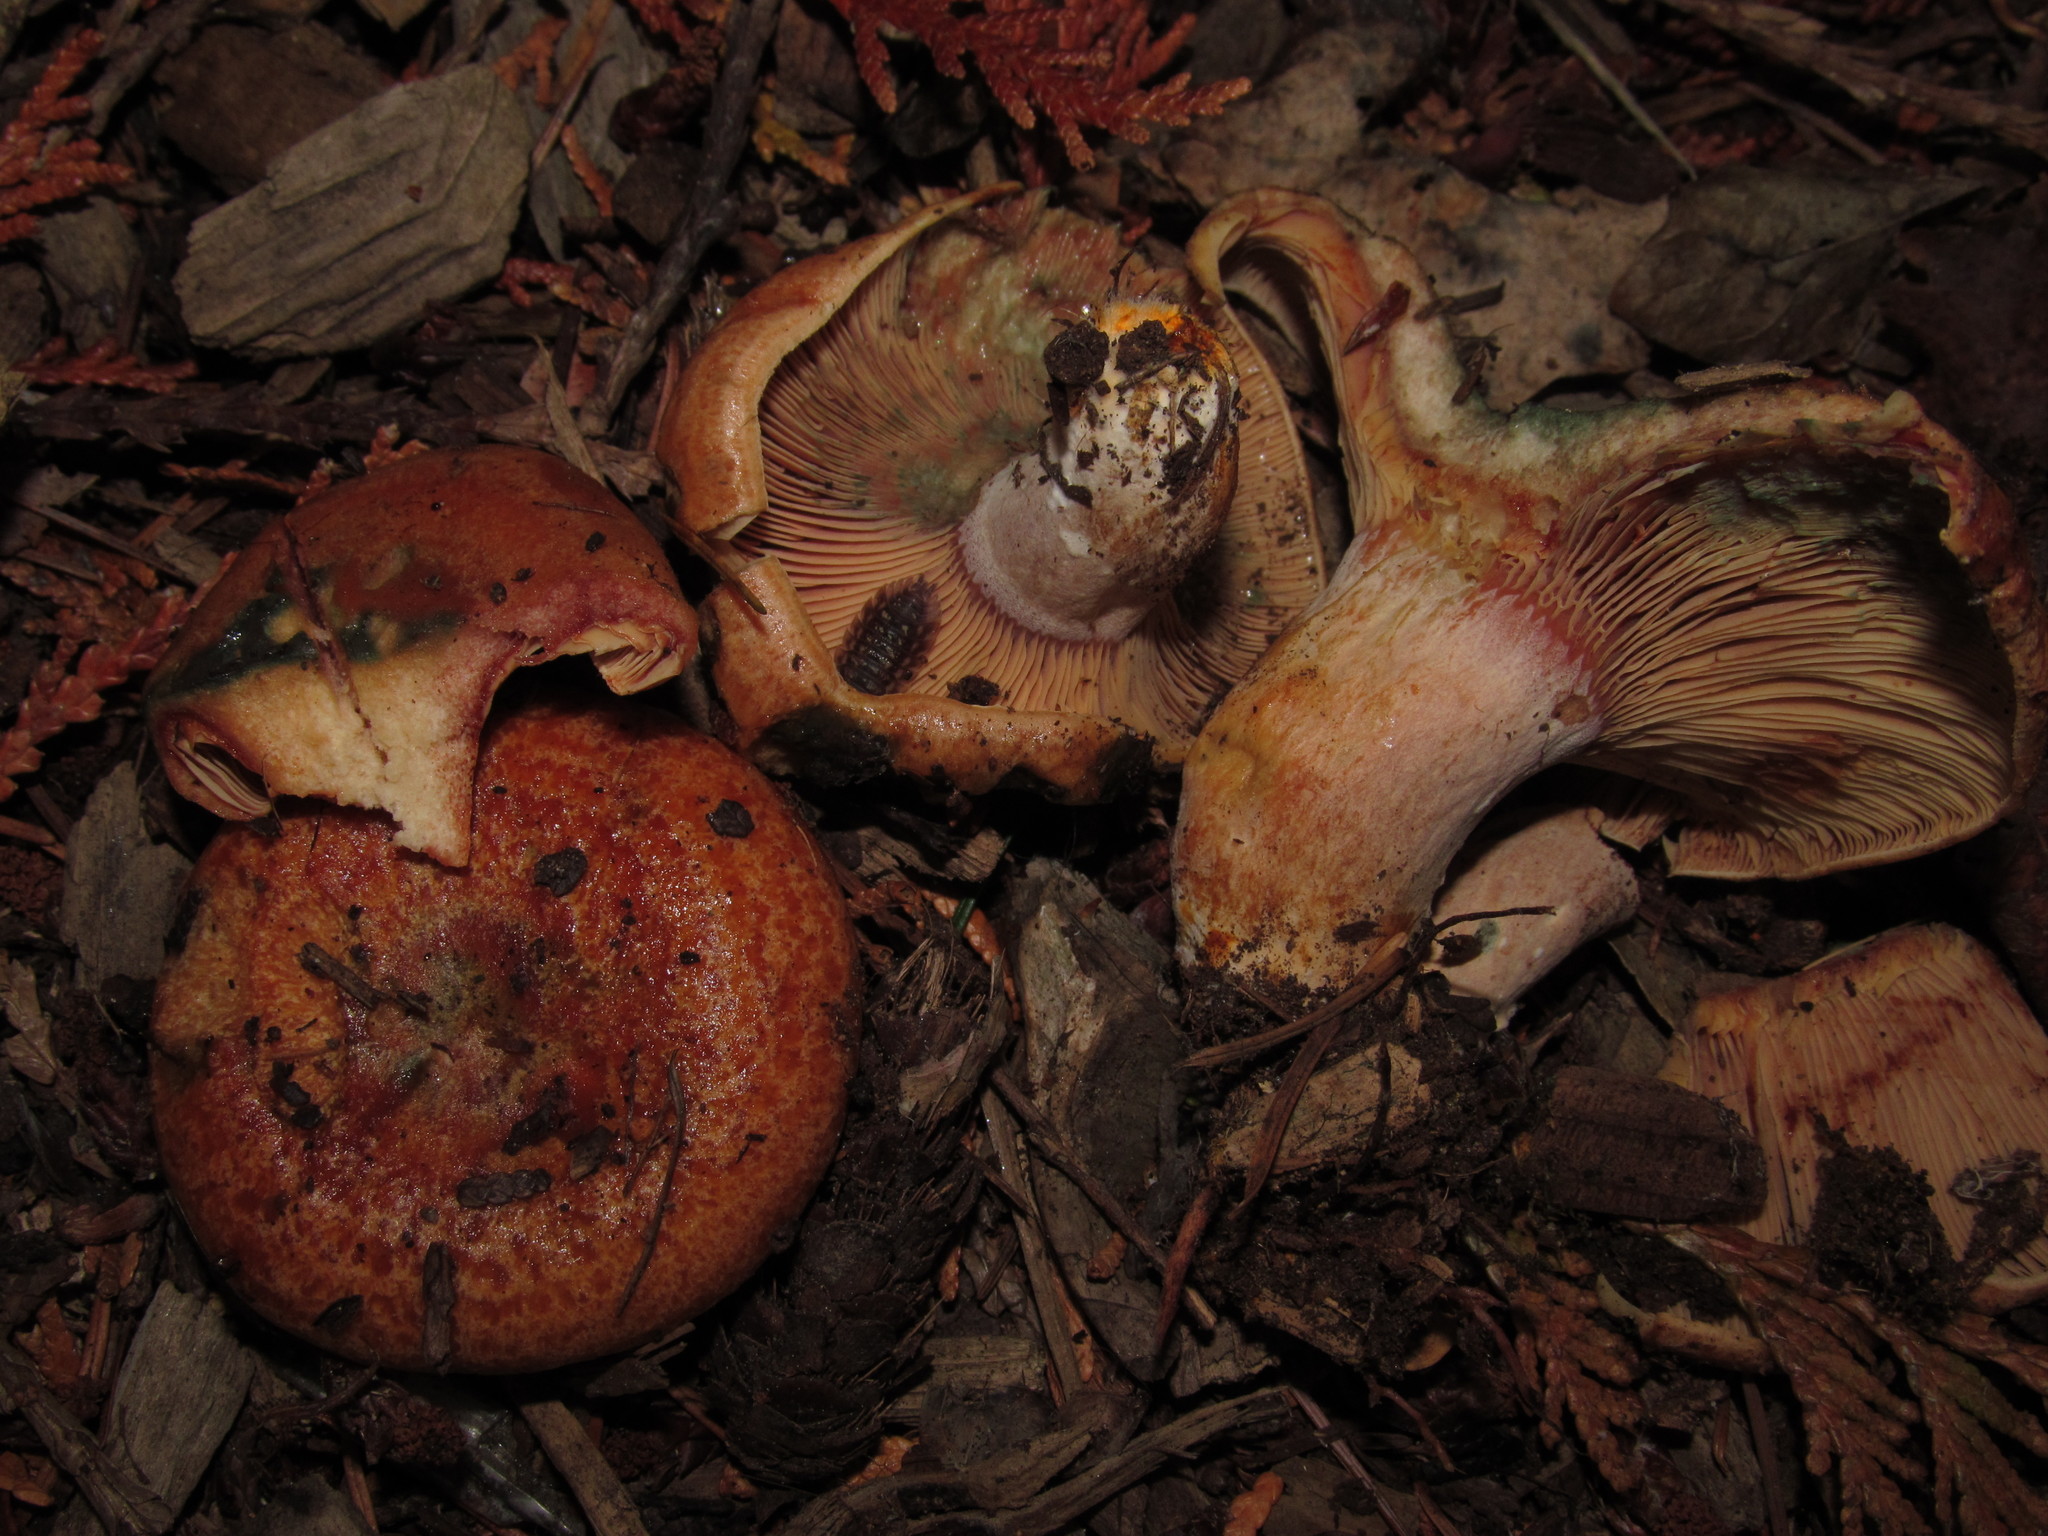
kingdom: Fungi
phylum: Basidiomycota
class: Agaricomycetes
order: Russulales
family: Russulaceae
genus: Lactarius
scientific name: Lactarius rubrilacteus
